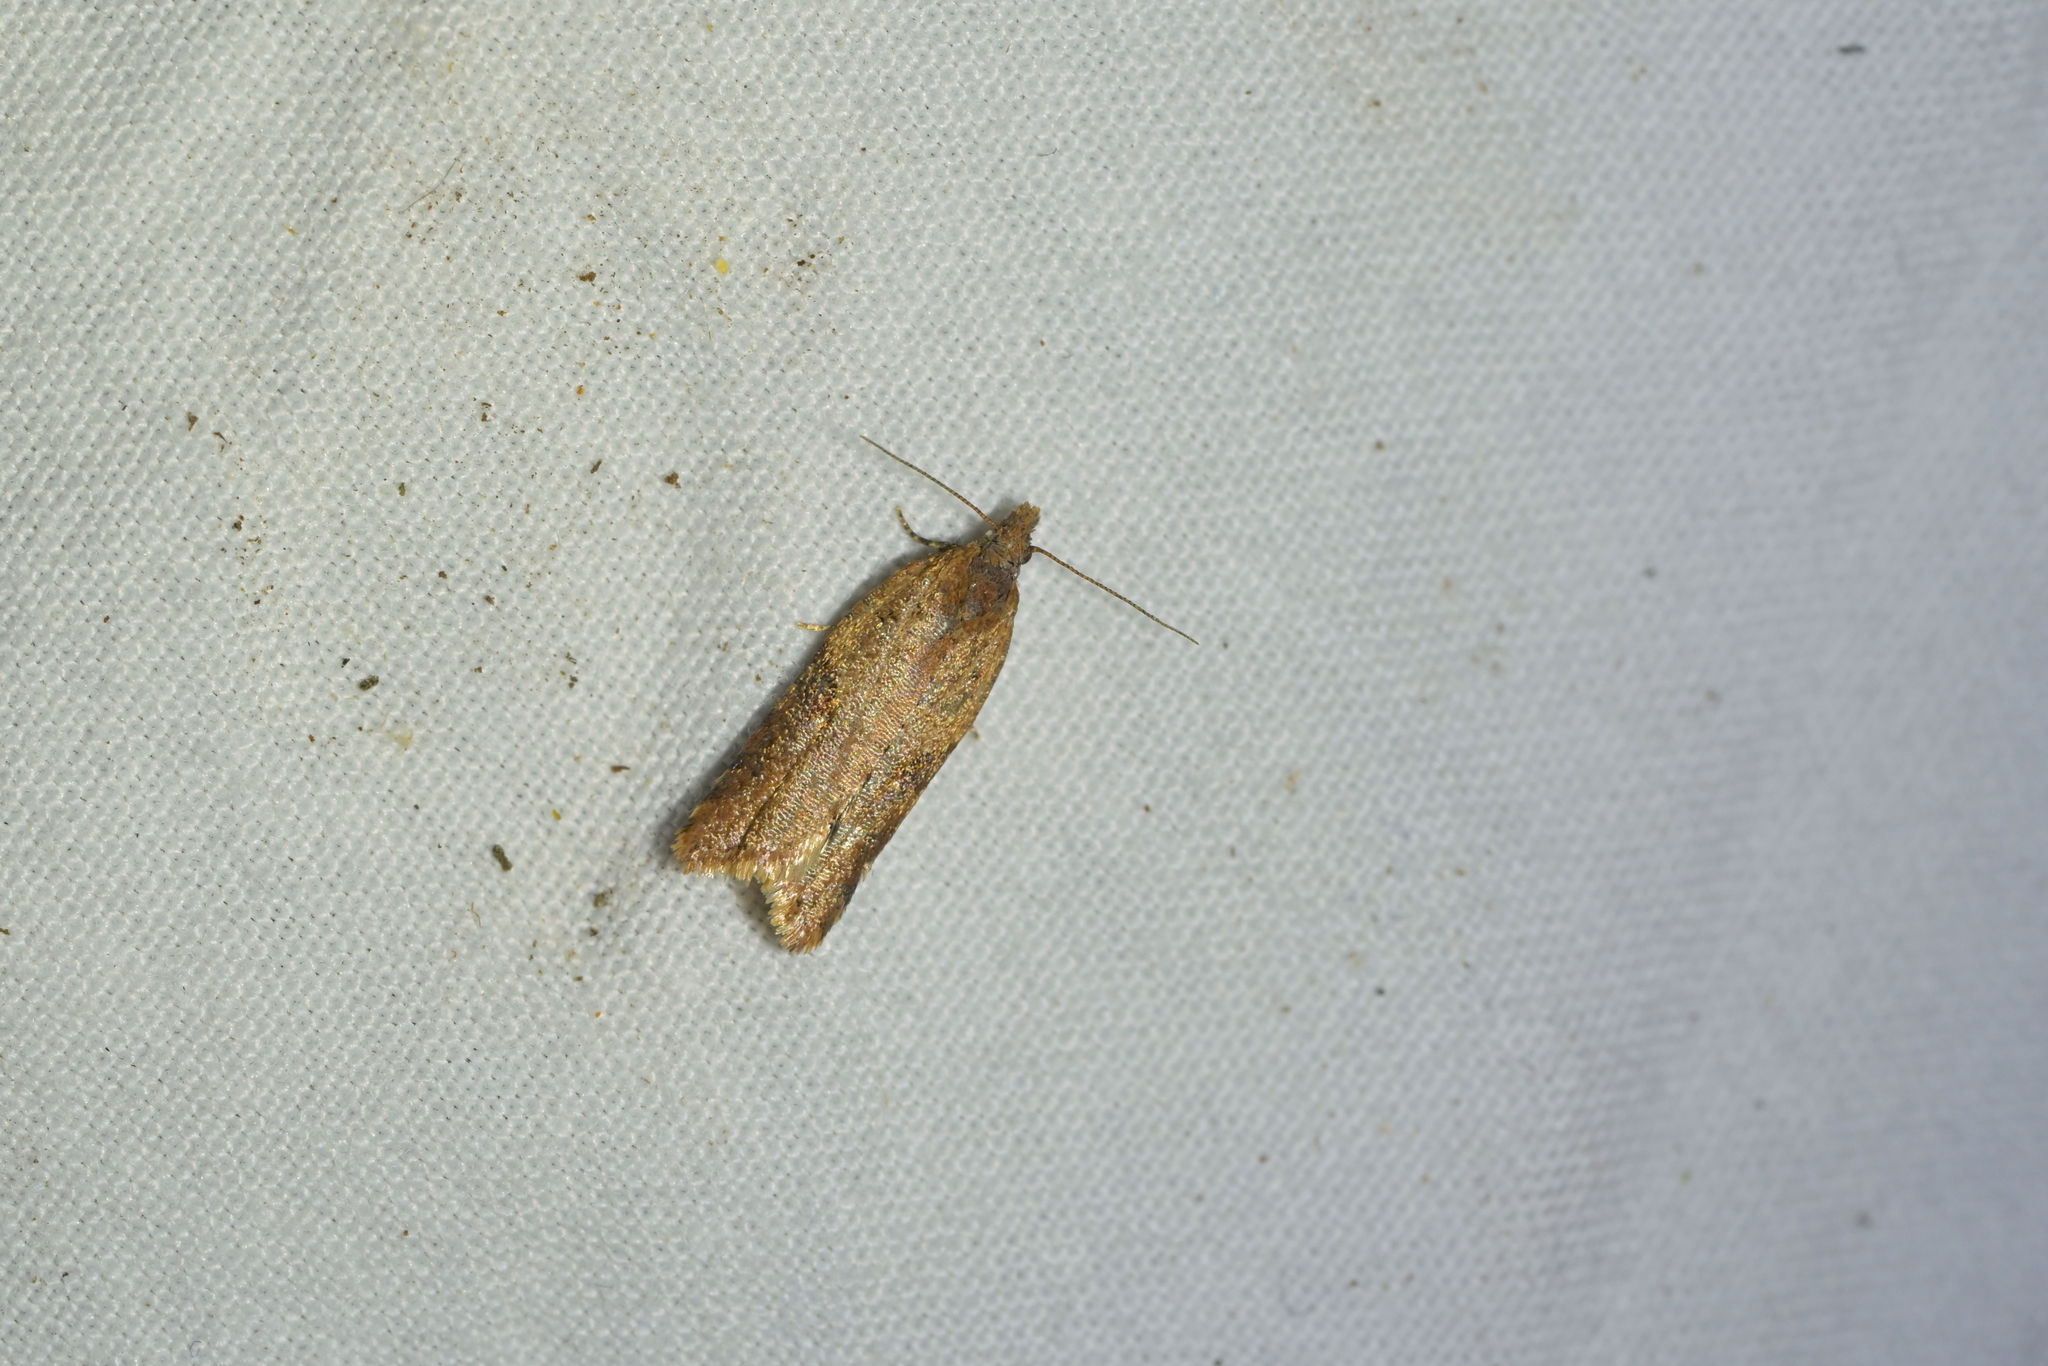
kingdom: Animalia
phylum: Arthropoda
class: Insecta
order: Lepidoptera
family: Tortricidae
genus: Capua
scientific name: Capua semiferana
